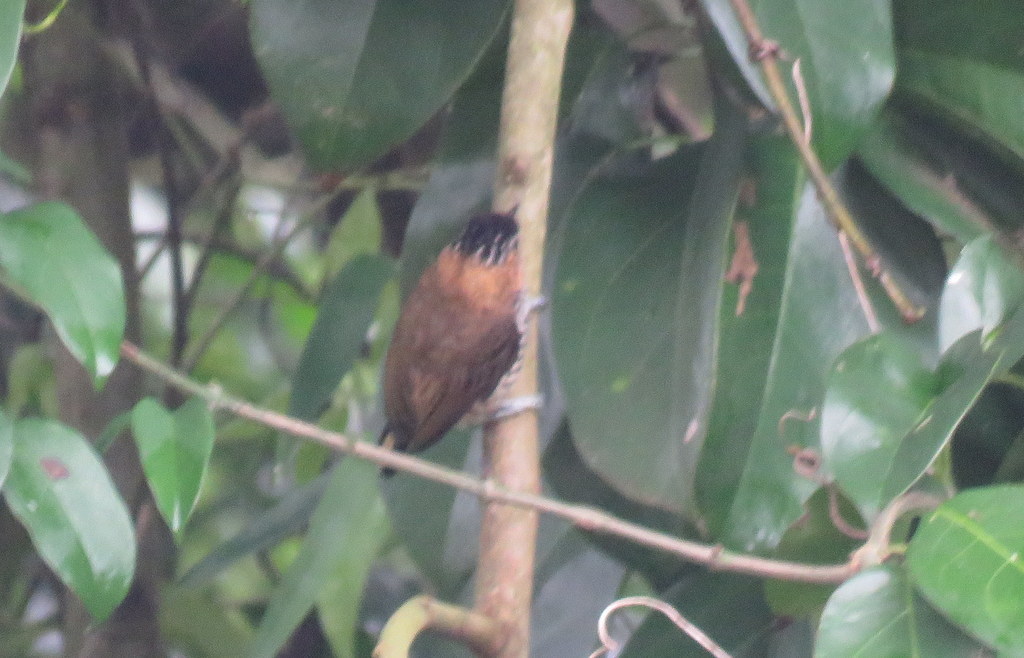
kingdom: Animalia
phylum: Chordata
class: Aves
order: Piciformes
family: Picidae
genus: Picumnus
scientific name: Picumnus temminckii
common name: Ochre-collared piculet
